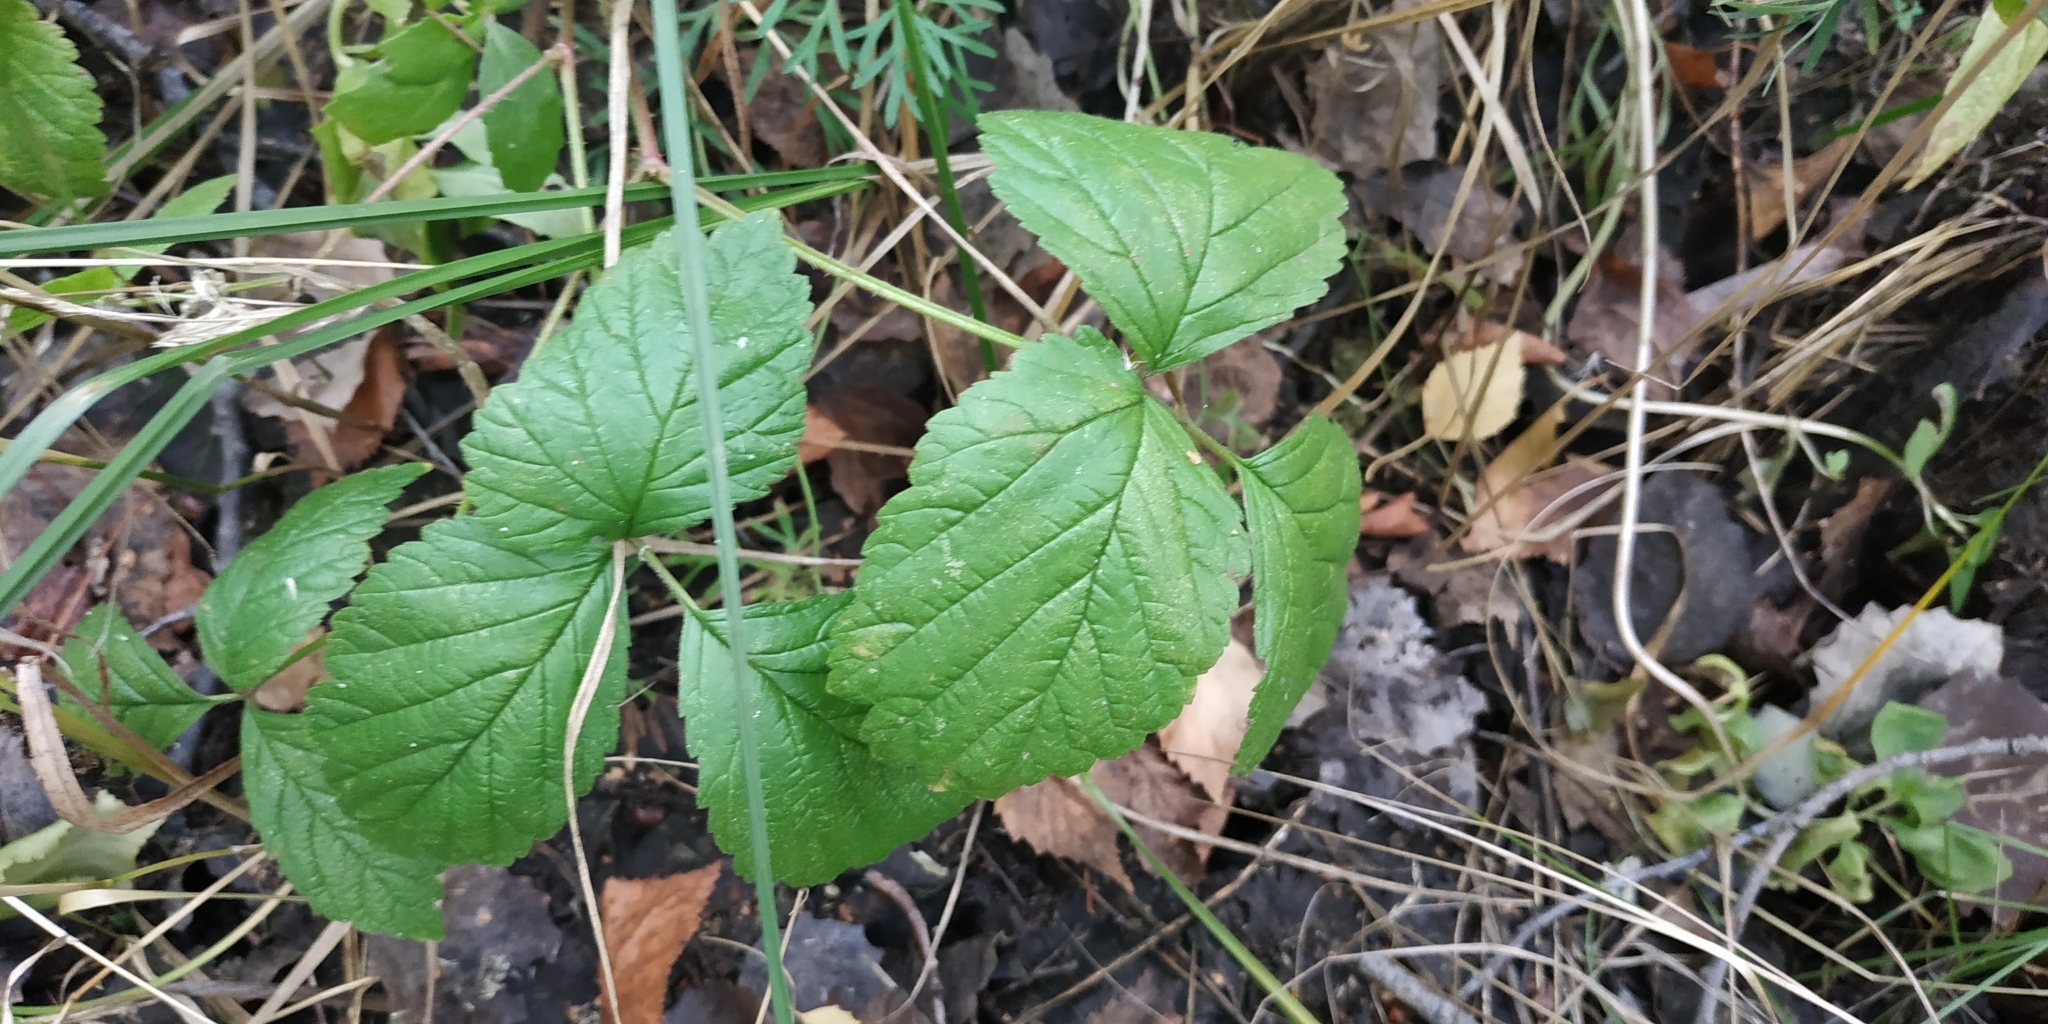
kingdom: Plantae
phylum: Tracheophyta
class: Magnoliopsida
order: Rosales
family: Rosaceae
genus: Rubus
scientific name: Rubus saxatilis
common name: Stone bramble
